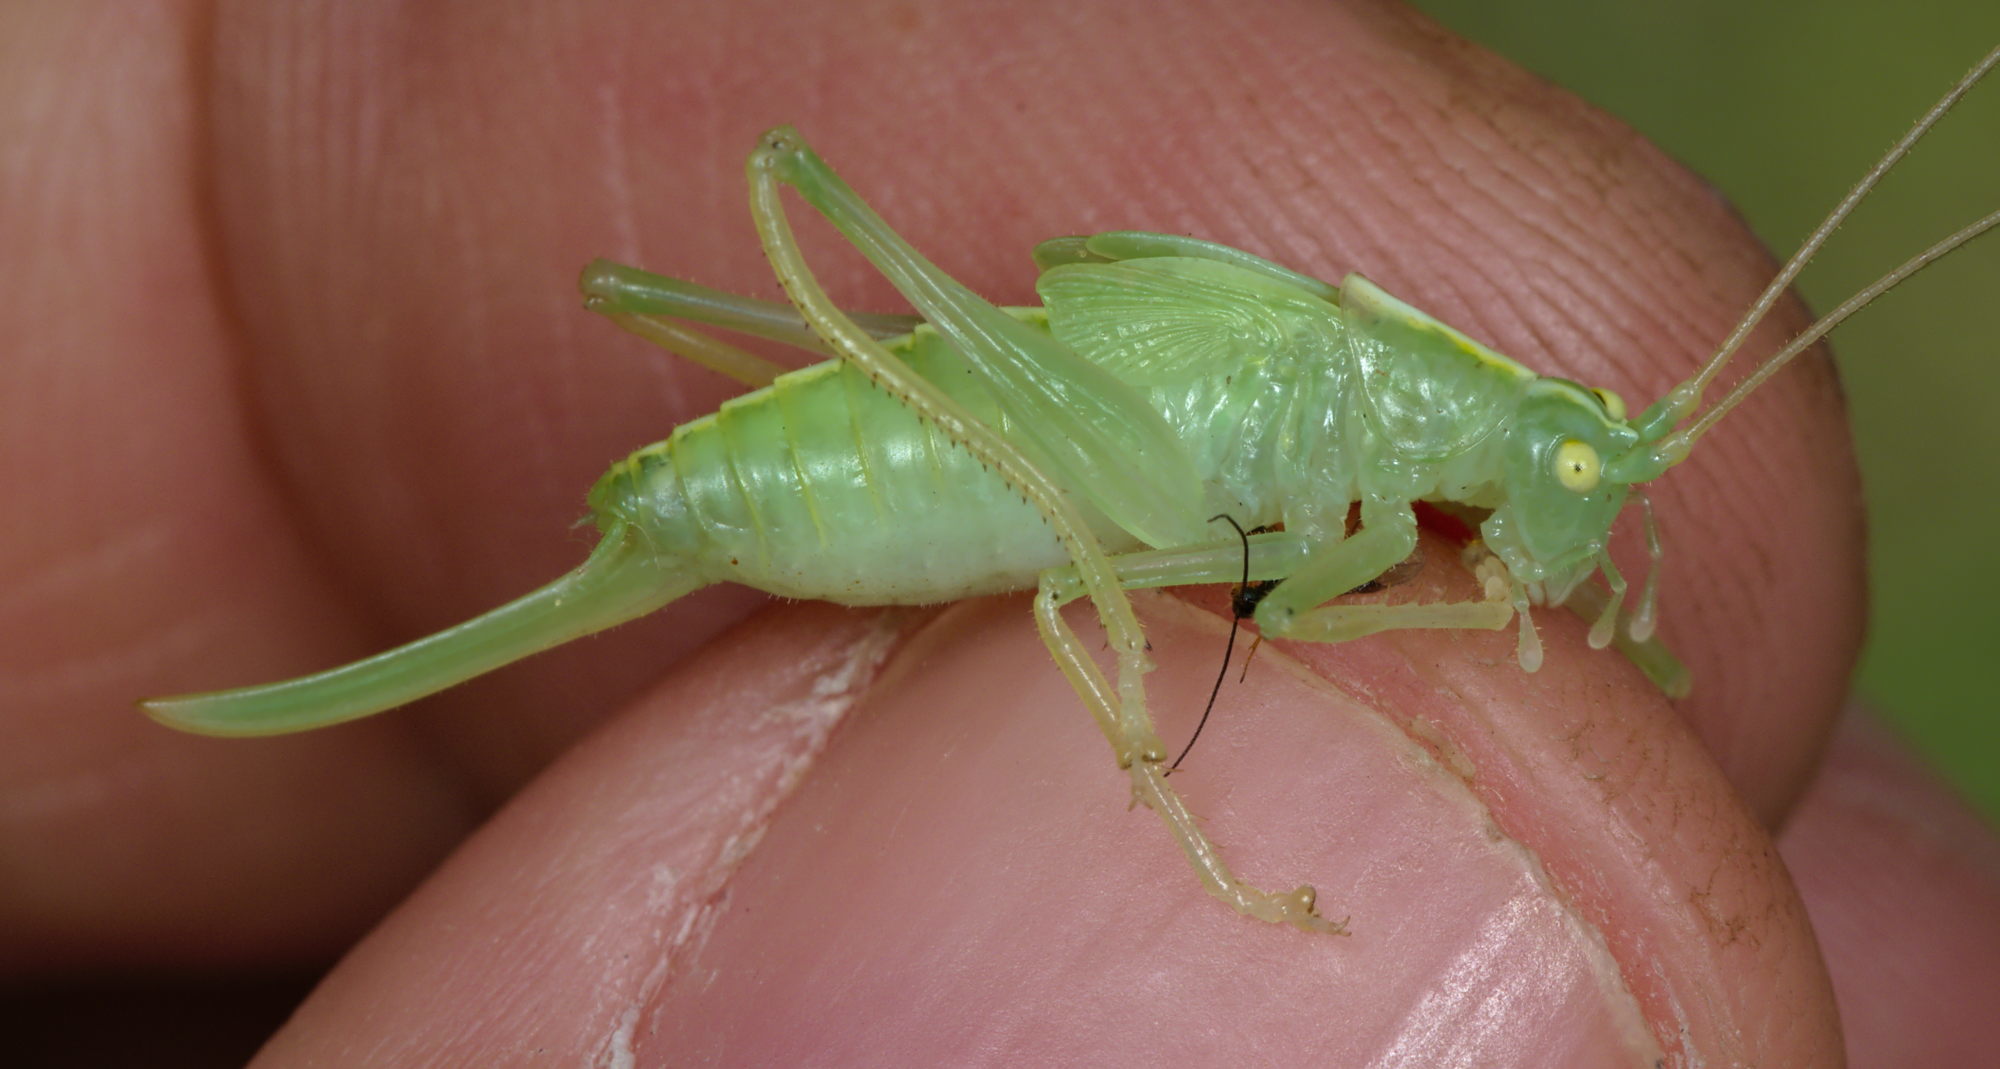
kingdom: Animalia
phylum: Arthropoda
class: Insecta
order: Orthoptera
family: Tettigoniidae
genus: Meconema
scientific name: Meconema thalassinum
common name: Oak bush-cricket
